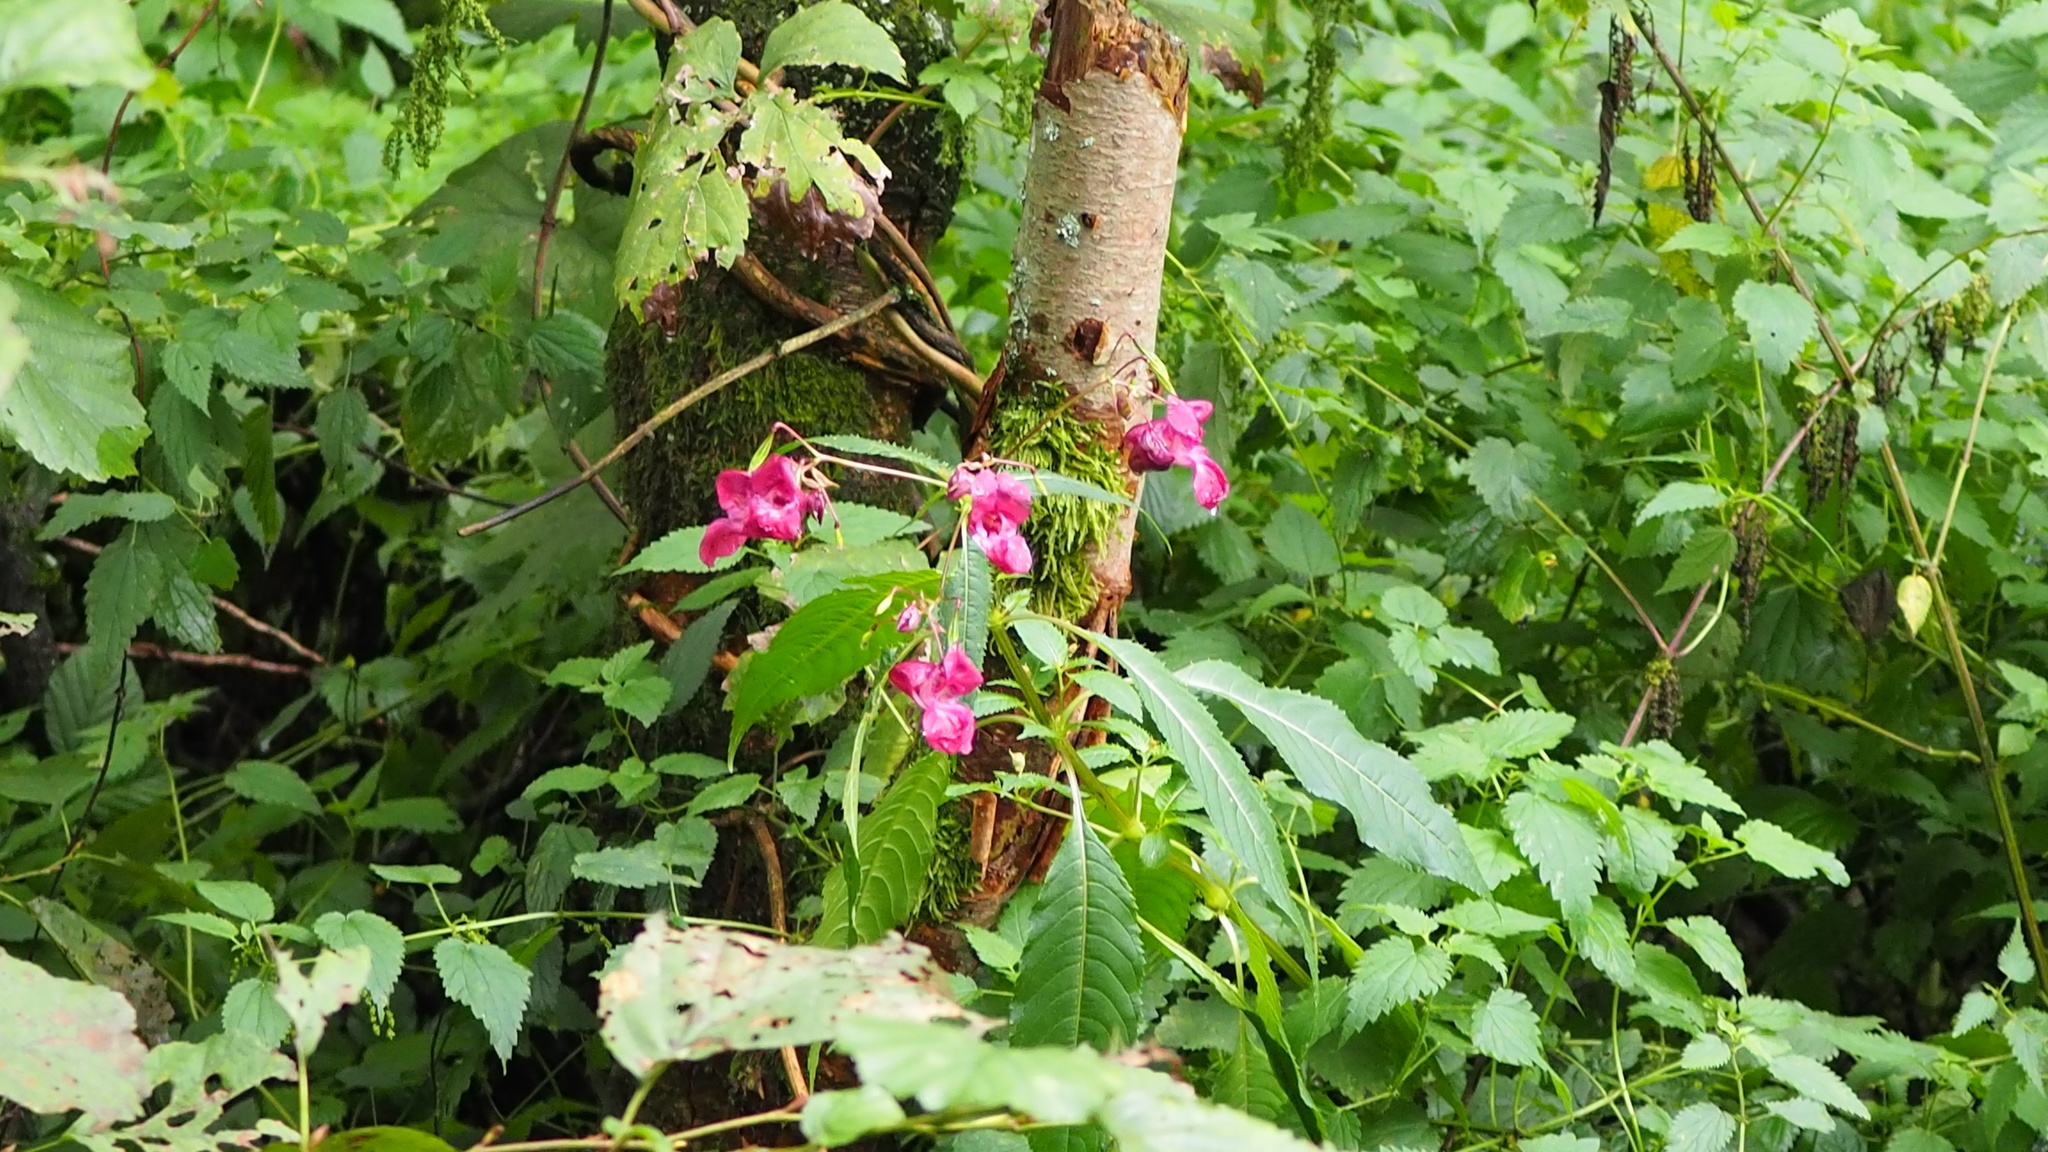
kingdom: Plantae
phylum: Tracheophyta
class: Magnoliopsida
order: Ericales
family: Balsaminaceae
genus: Impatiens
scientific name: Impatiens glandulifera
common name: Himalayan balsam
